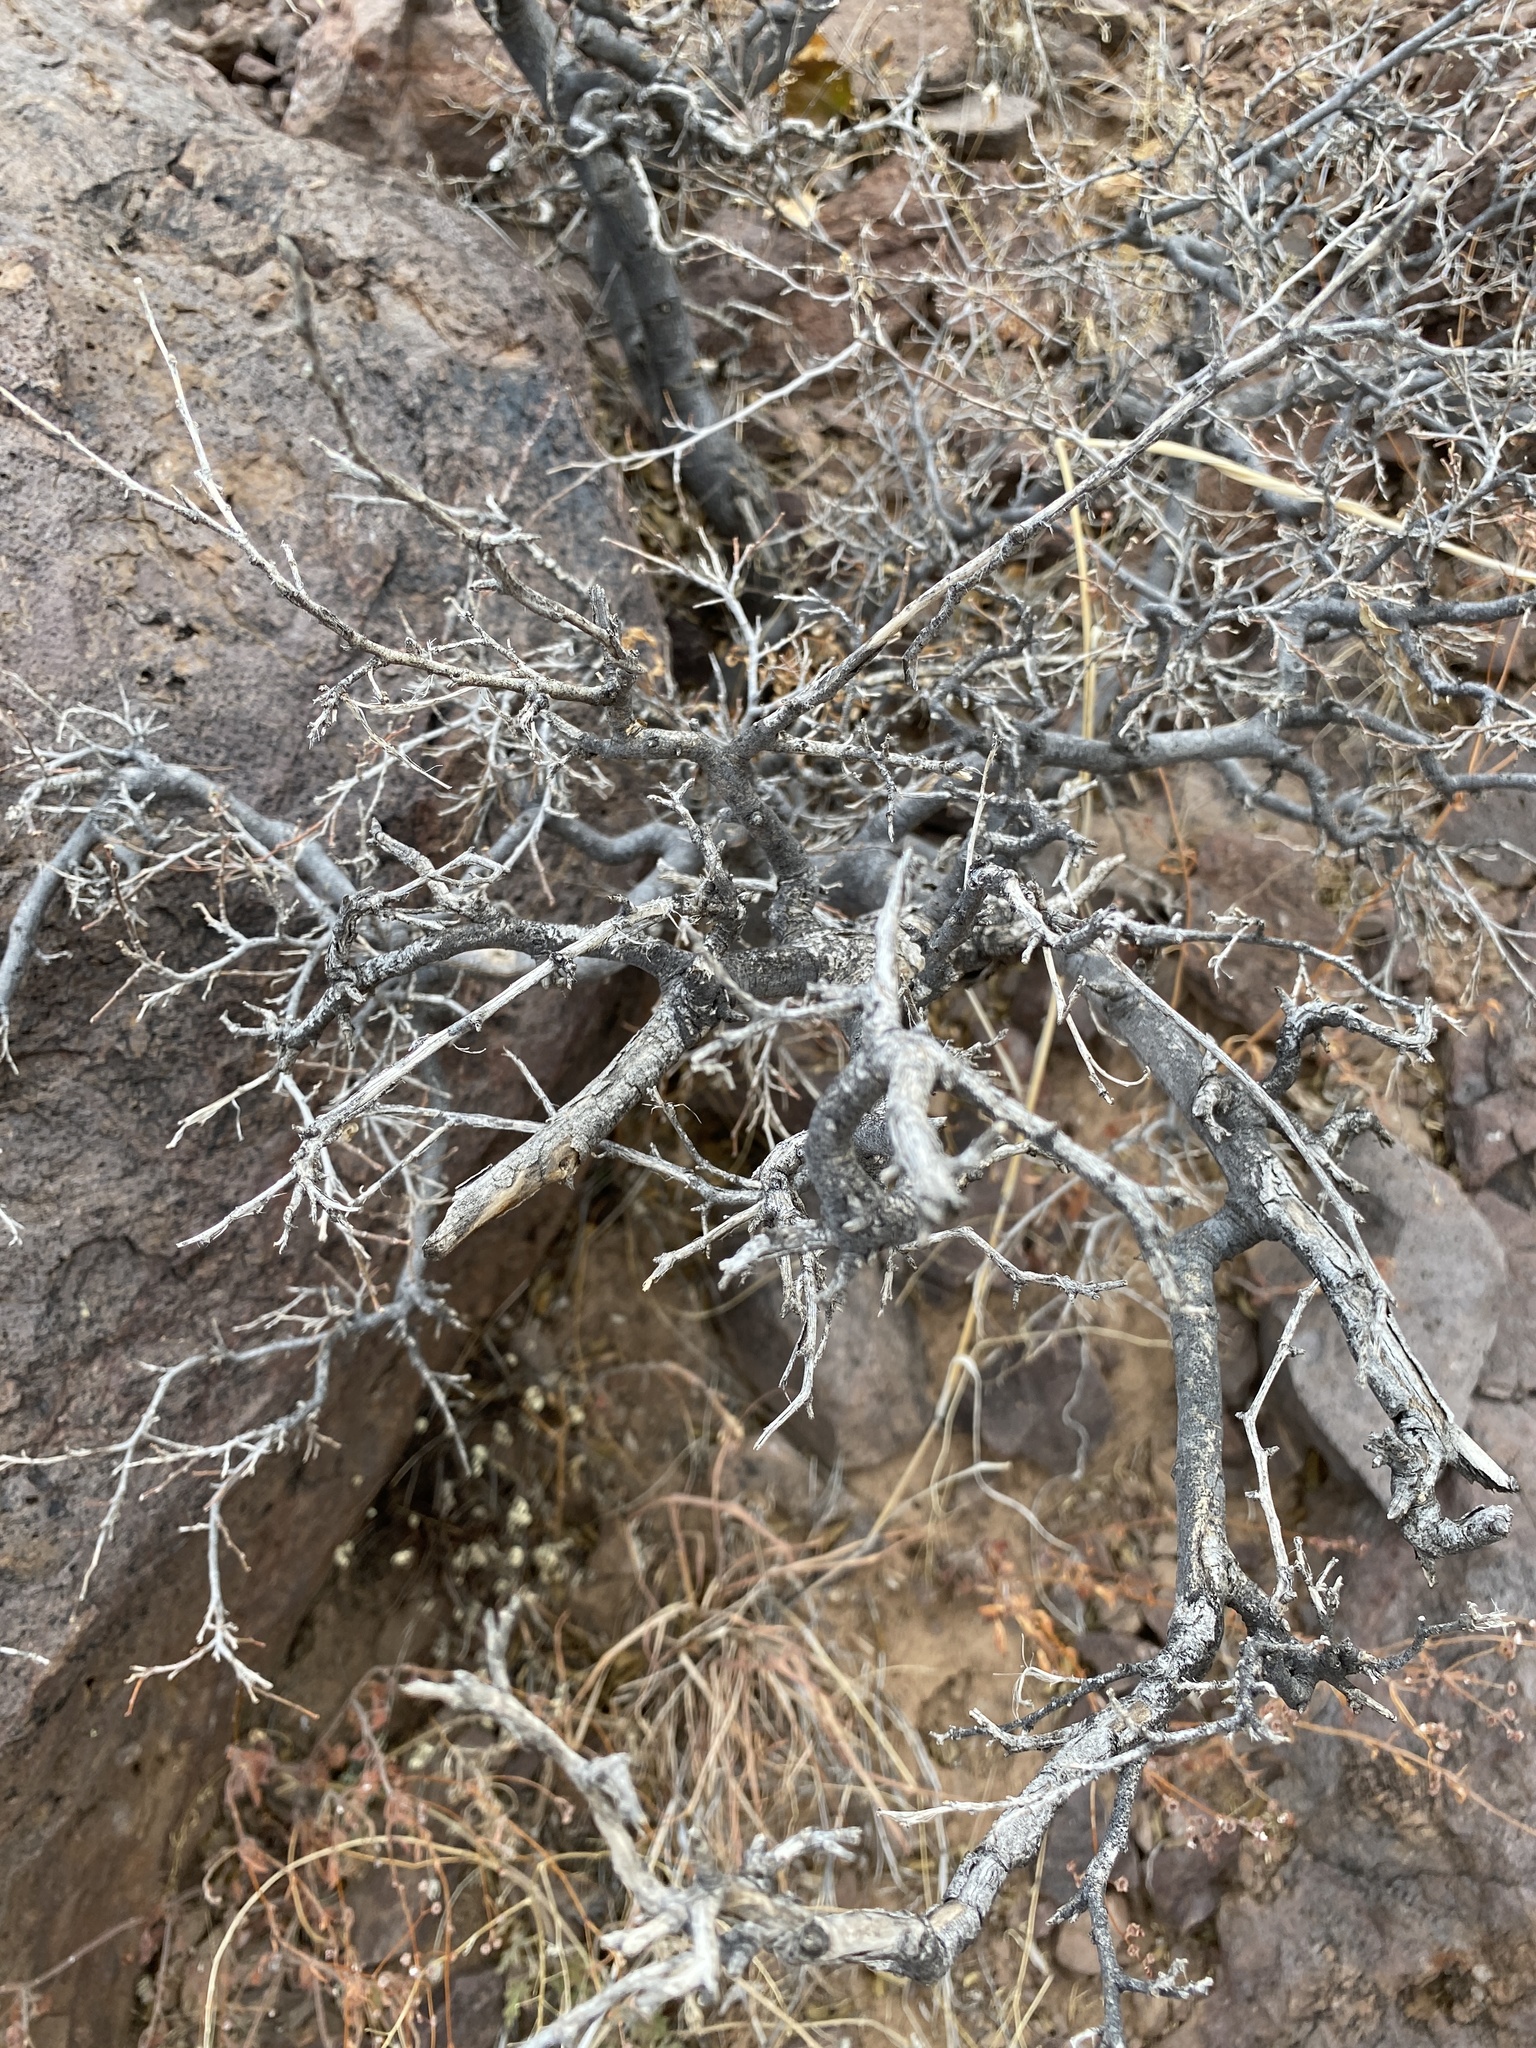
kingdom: Plantae
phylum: Tracheophyta
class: Magnoliopsida
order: Rosales
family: Cannabaceae
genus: Celtis
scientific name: Celtis reticulata
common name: Netleaf hackberry
